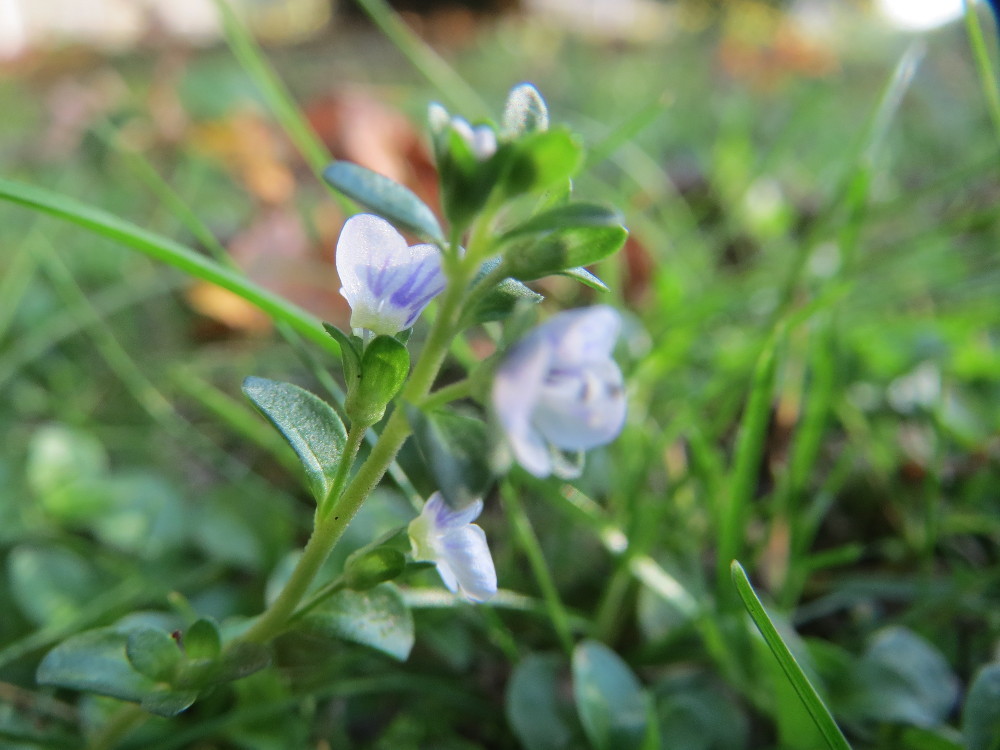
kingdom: Plantae
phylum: Tracheophyta
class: Magnoliopsida
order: Lamiales
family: Plantaginaceae
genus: Veronica
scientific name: Veronica serpyllifolia
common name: Thyme-leaved speedwell
